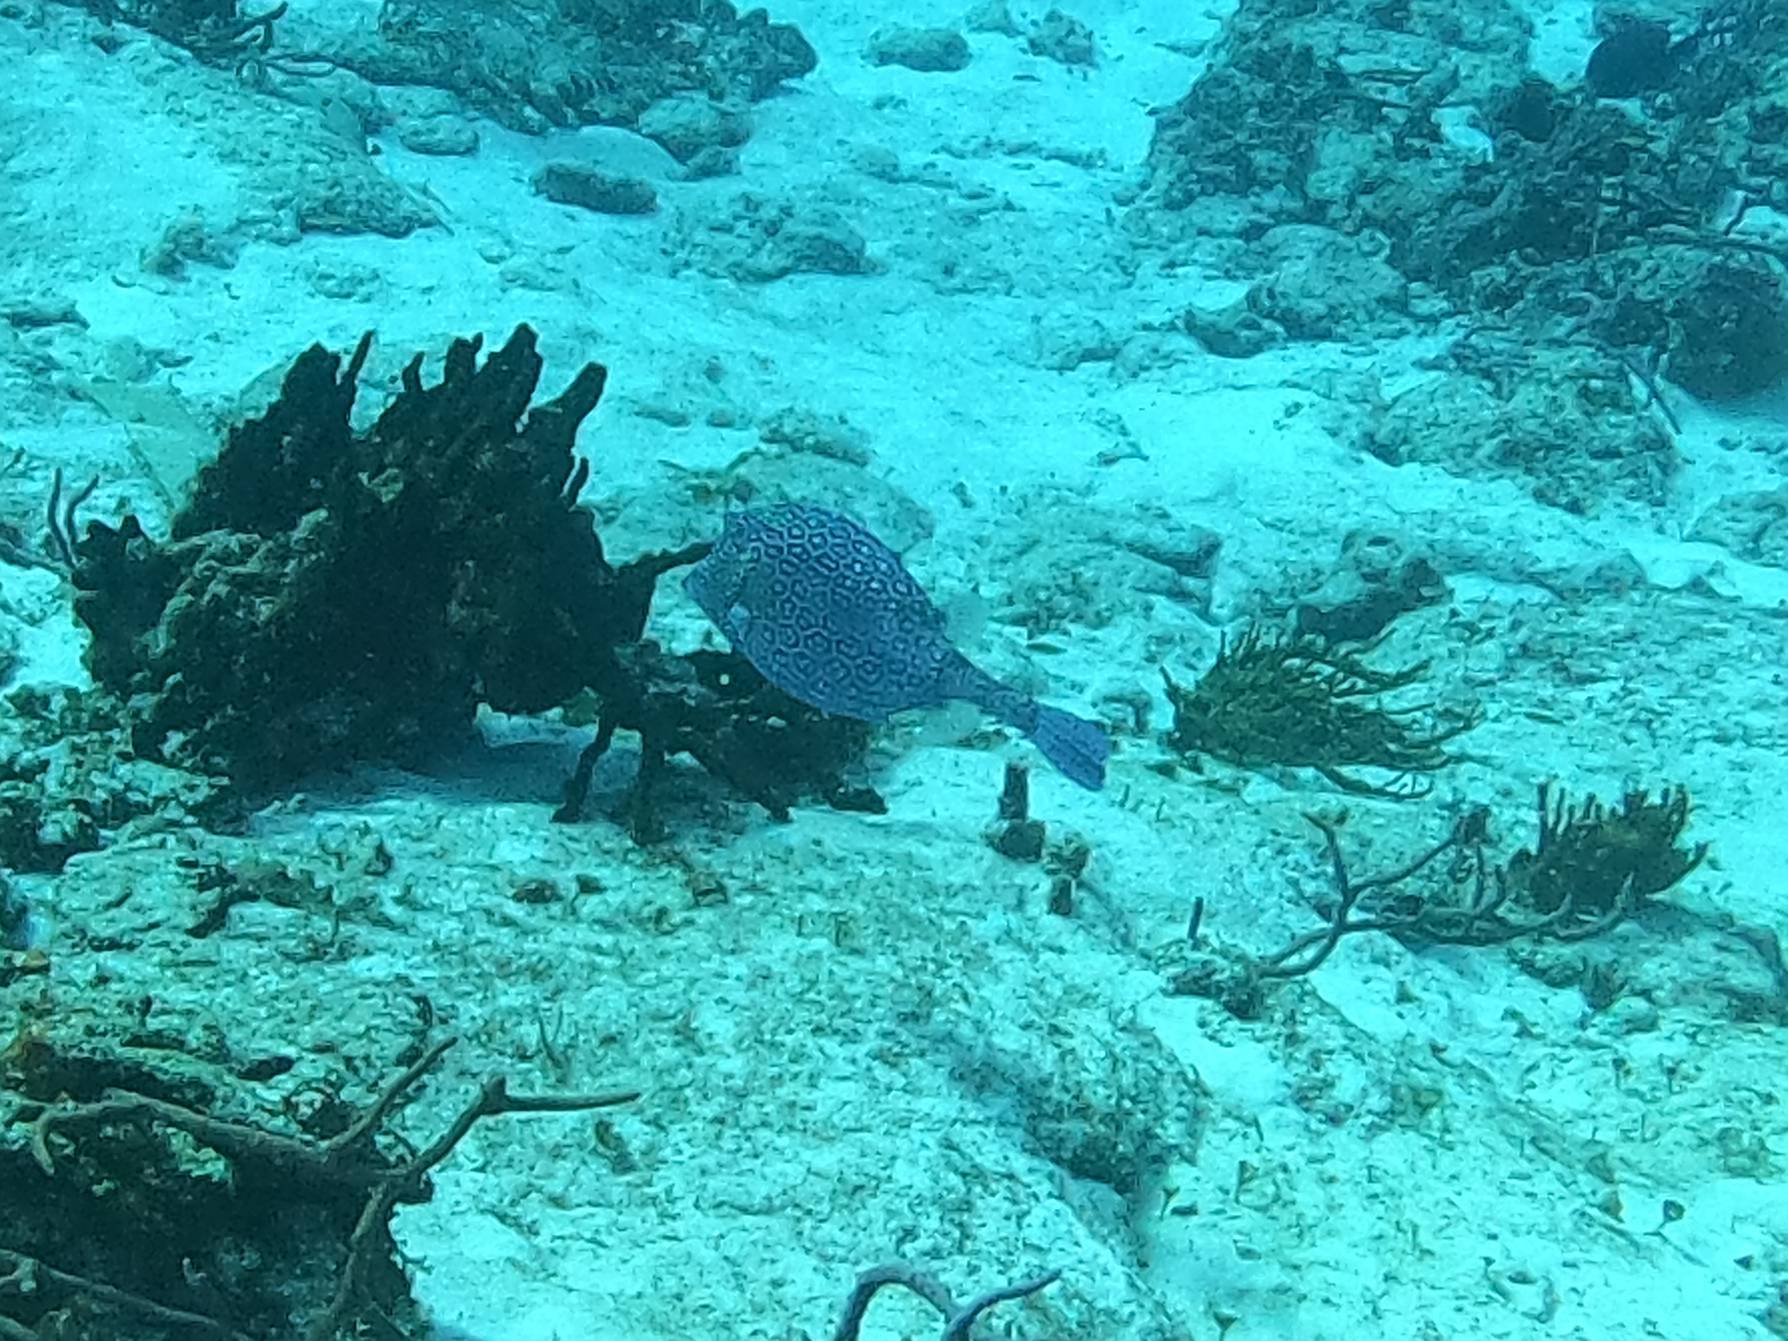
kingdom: Animalia
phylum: Chordata
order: Tetraodontiformes
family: Ostraciidae
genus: Acanthostracion
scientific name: Acanthostracion polygonius
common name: Honeycomb cowfish
